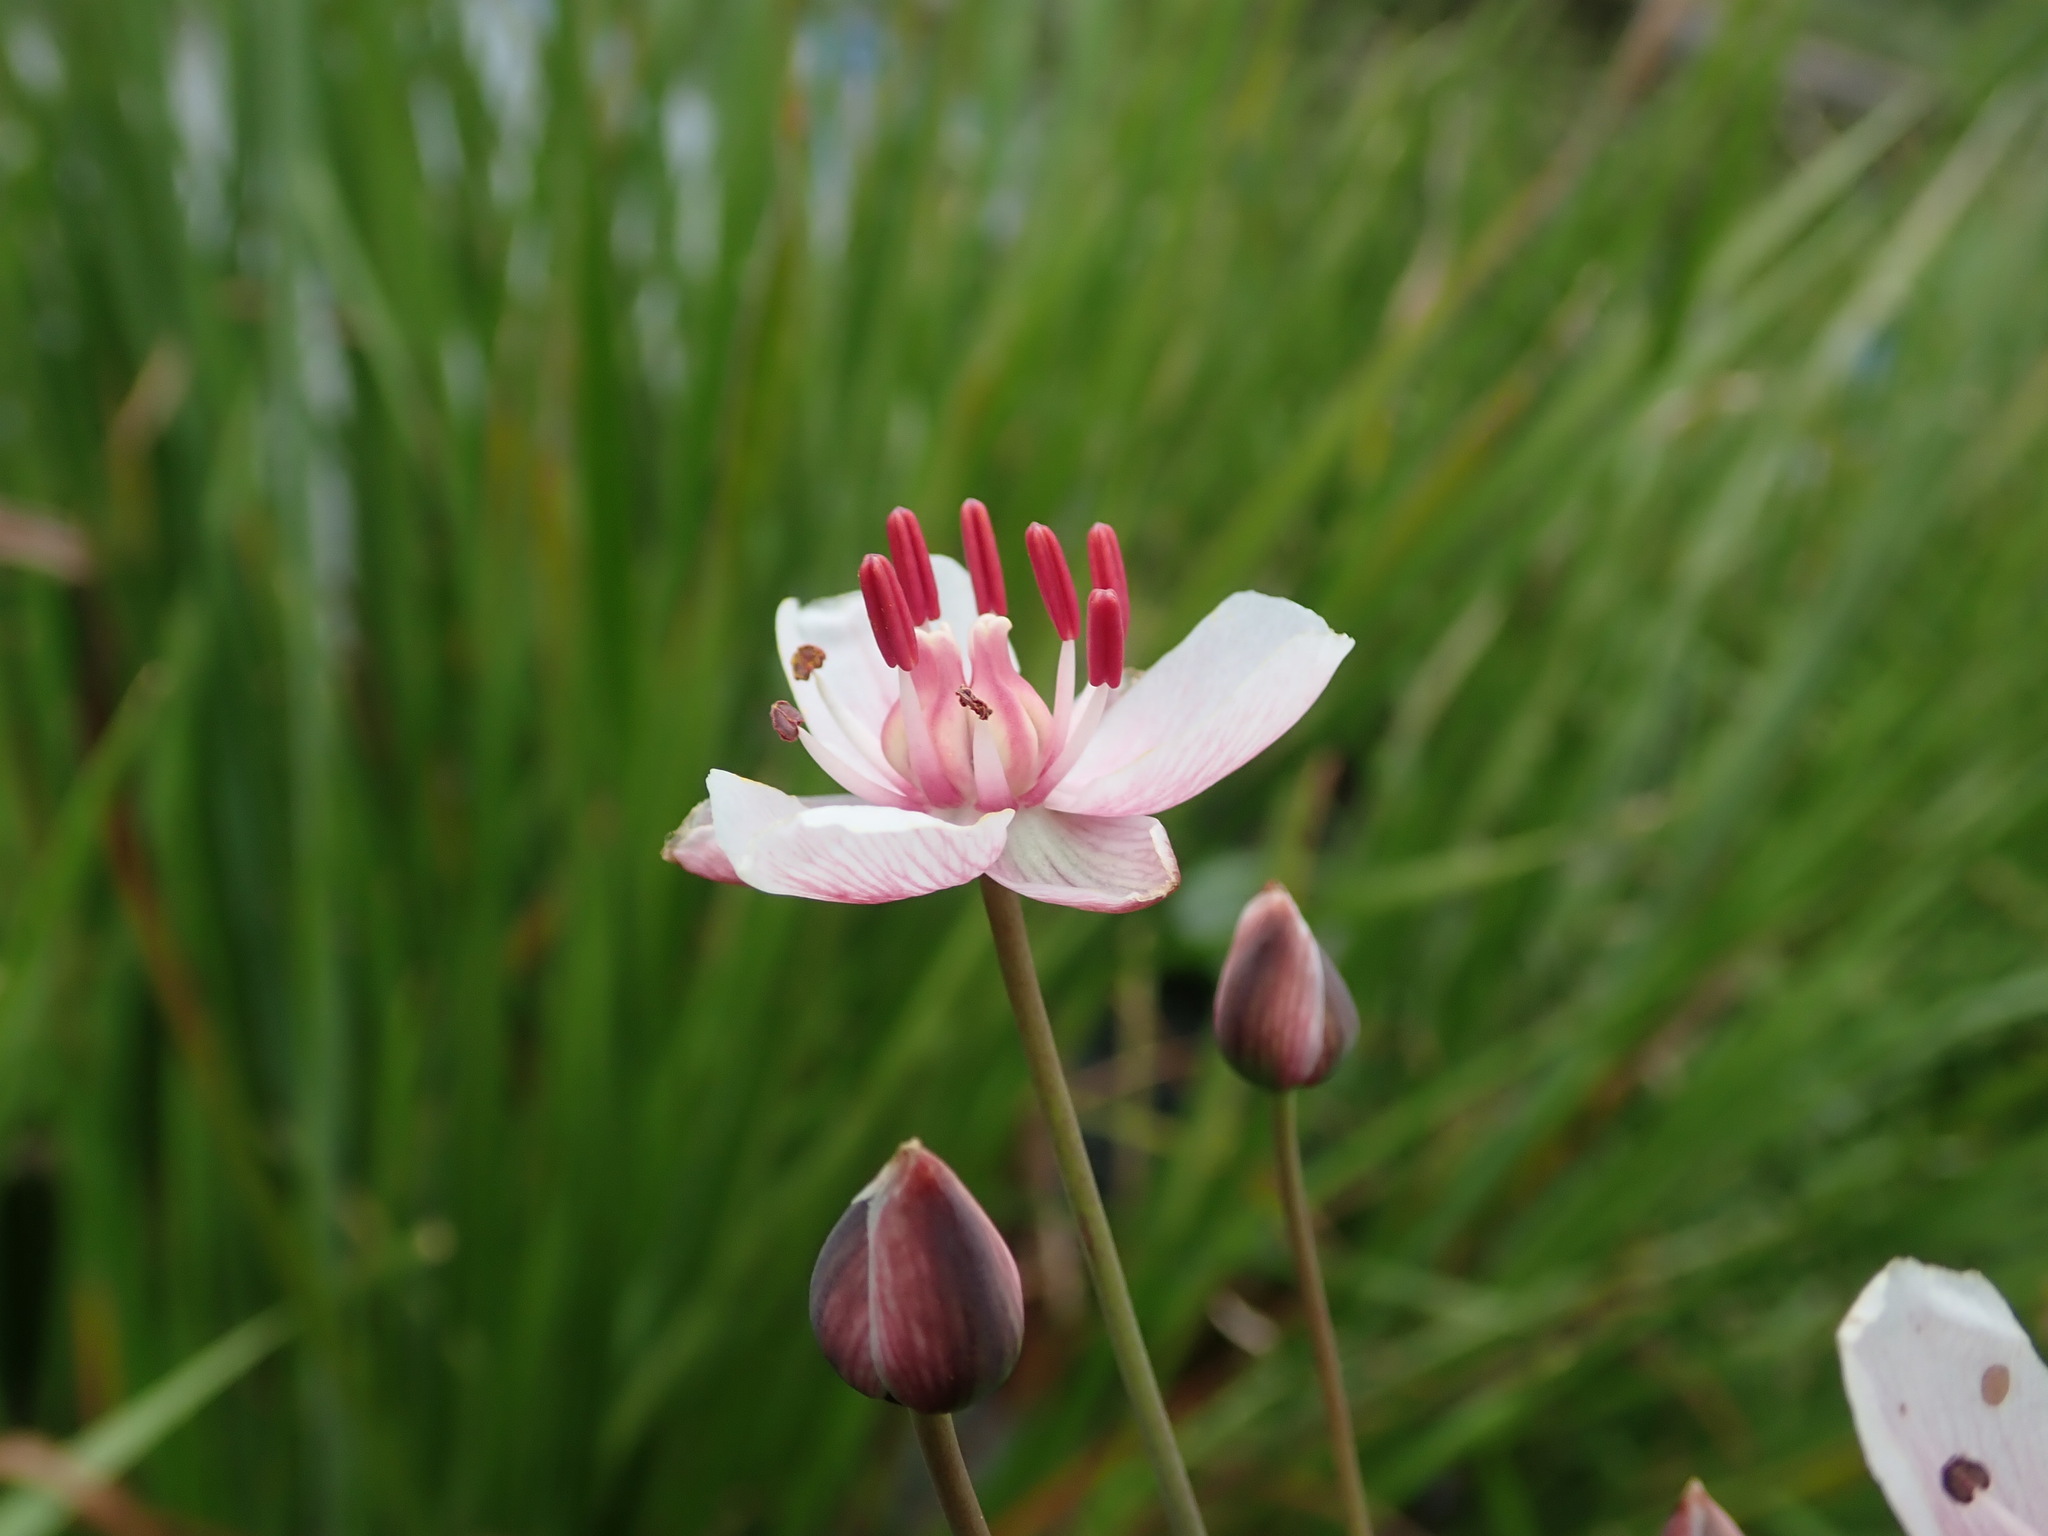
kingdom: Plantae
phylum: Tracheophyta
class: Liliopsida
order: Alismatales
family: Butomaceae
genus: Butomus
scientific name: Butomus umbellatus
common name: Flowering-rush
